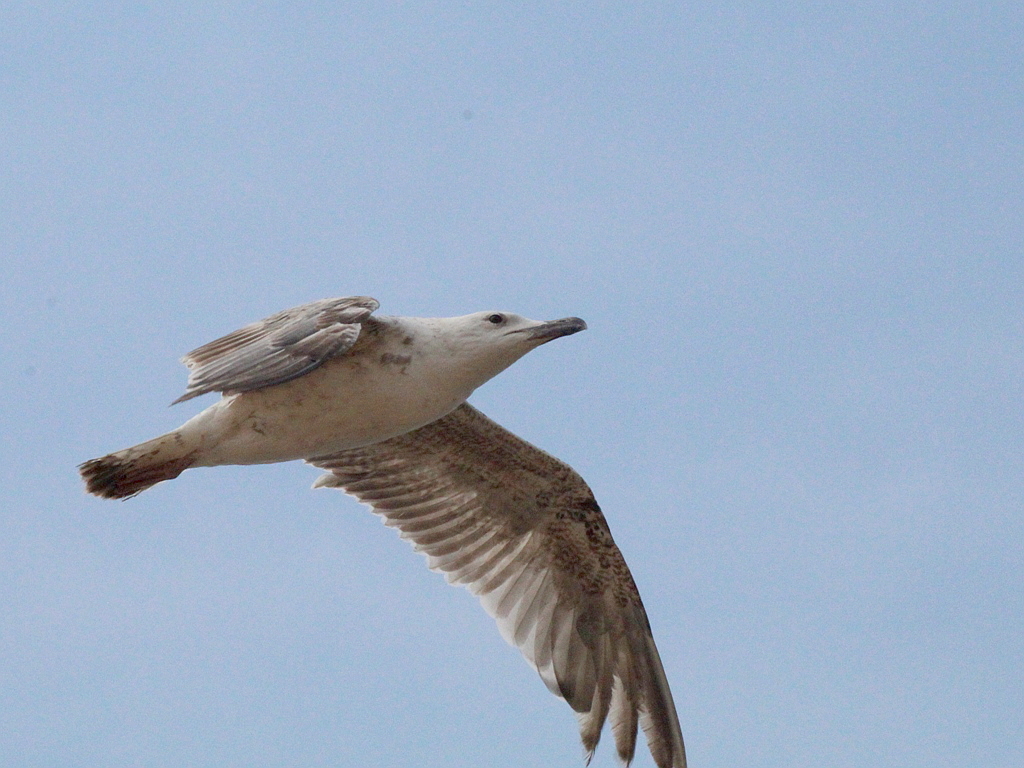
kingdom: Animalia
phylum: Chordata
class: Aves
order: Charadriiformes
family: Laridae
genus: Larus
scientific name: Larus michahellis
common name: Yellow-legged gull
